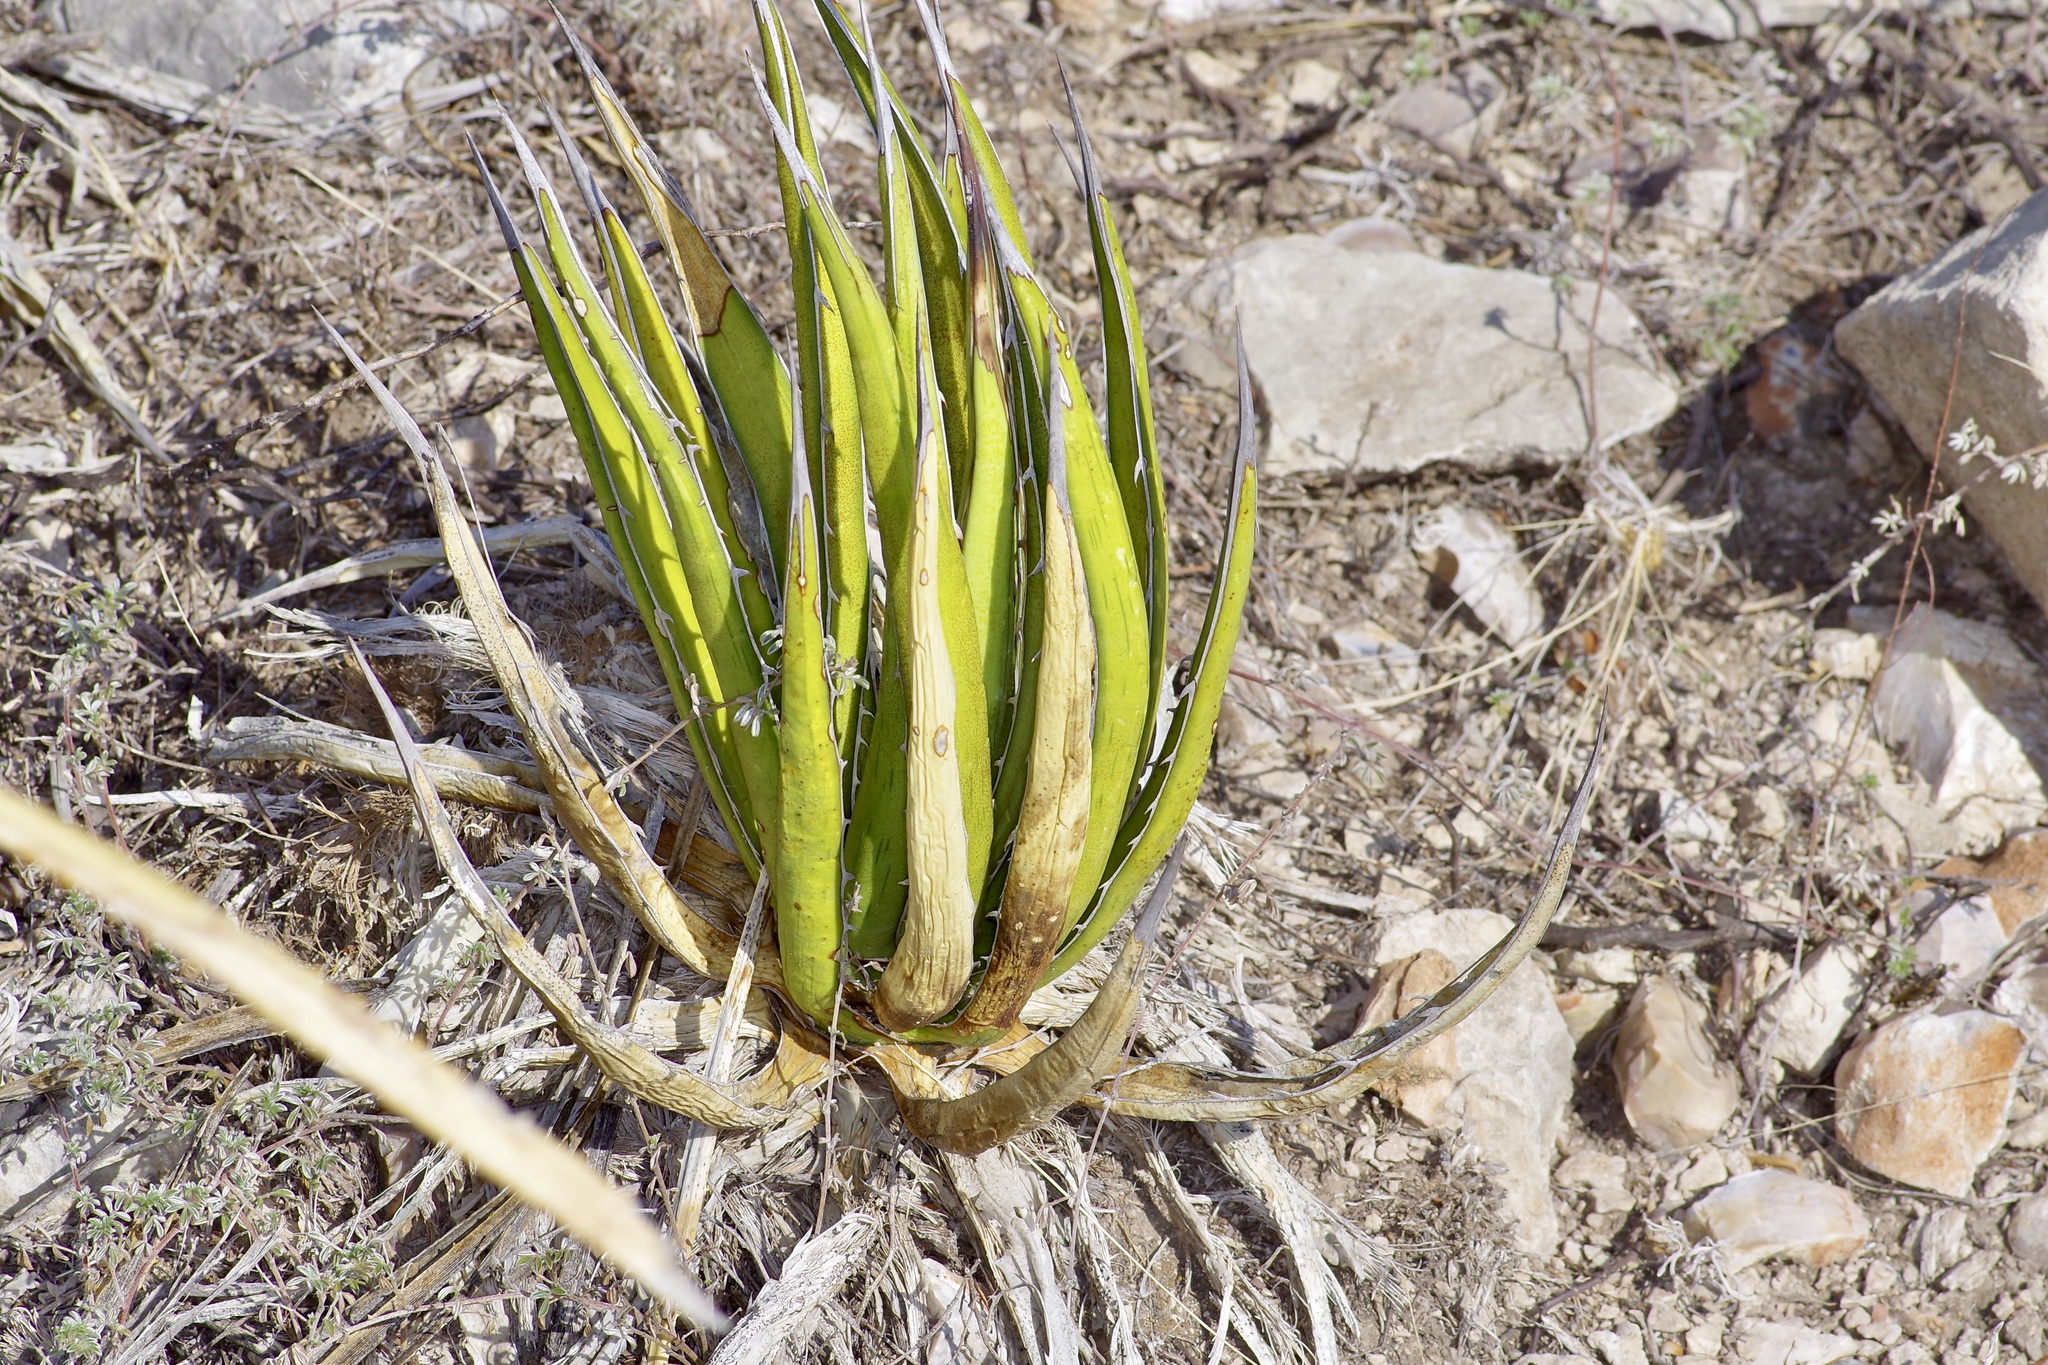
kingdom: Plantae
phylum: Tracheophyta
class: Liliopsida
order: Asparagales
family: Asparagaceae
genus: Agave
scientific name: Agave lechuguilla
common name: Lecheguilla agave
